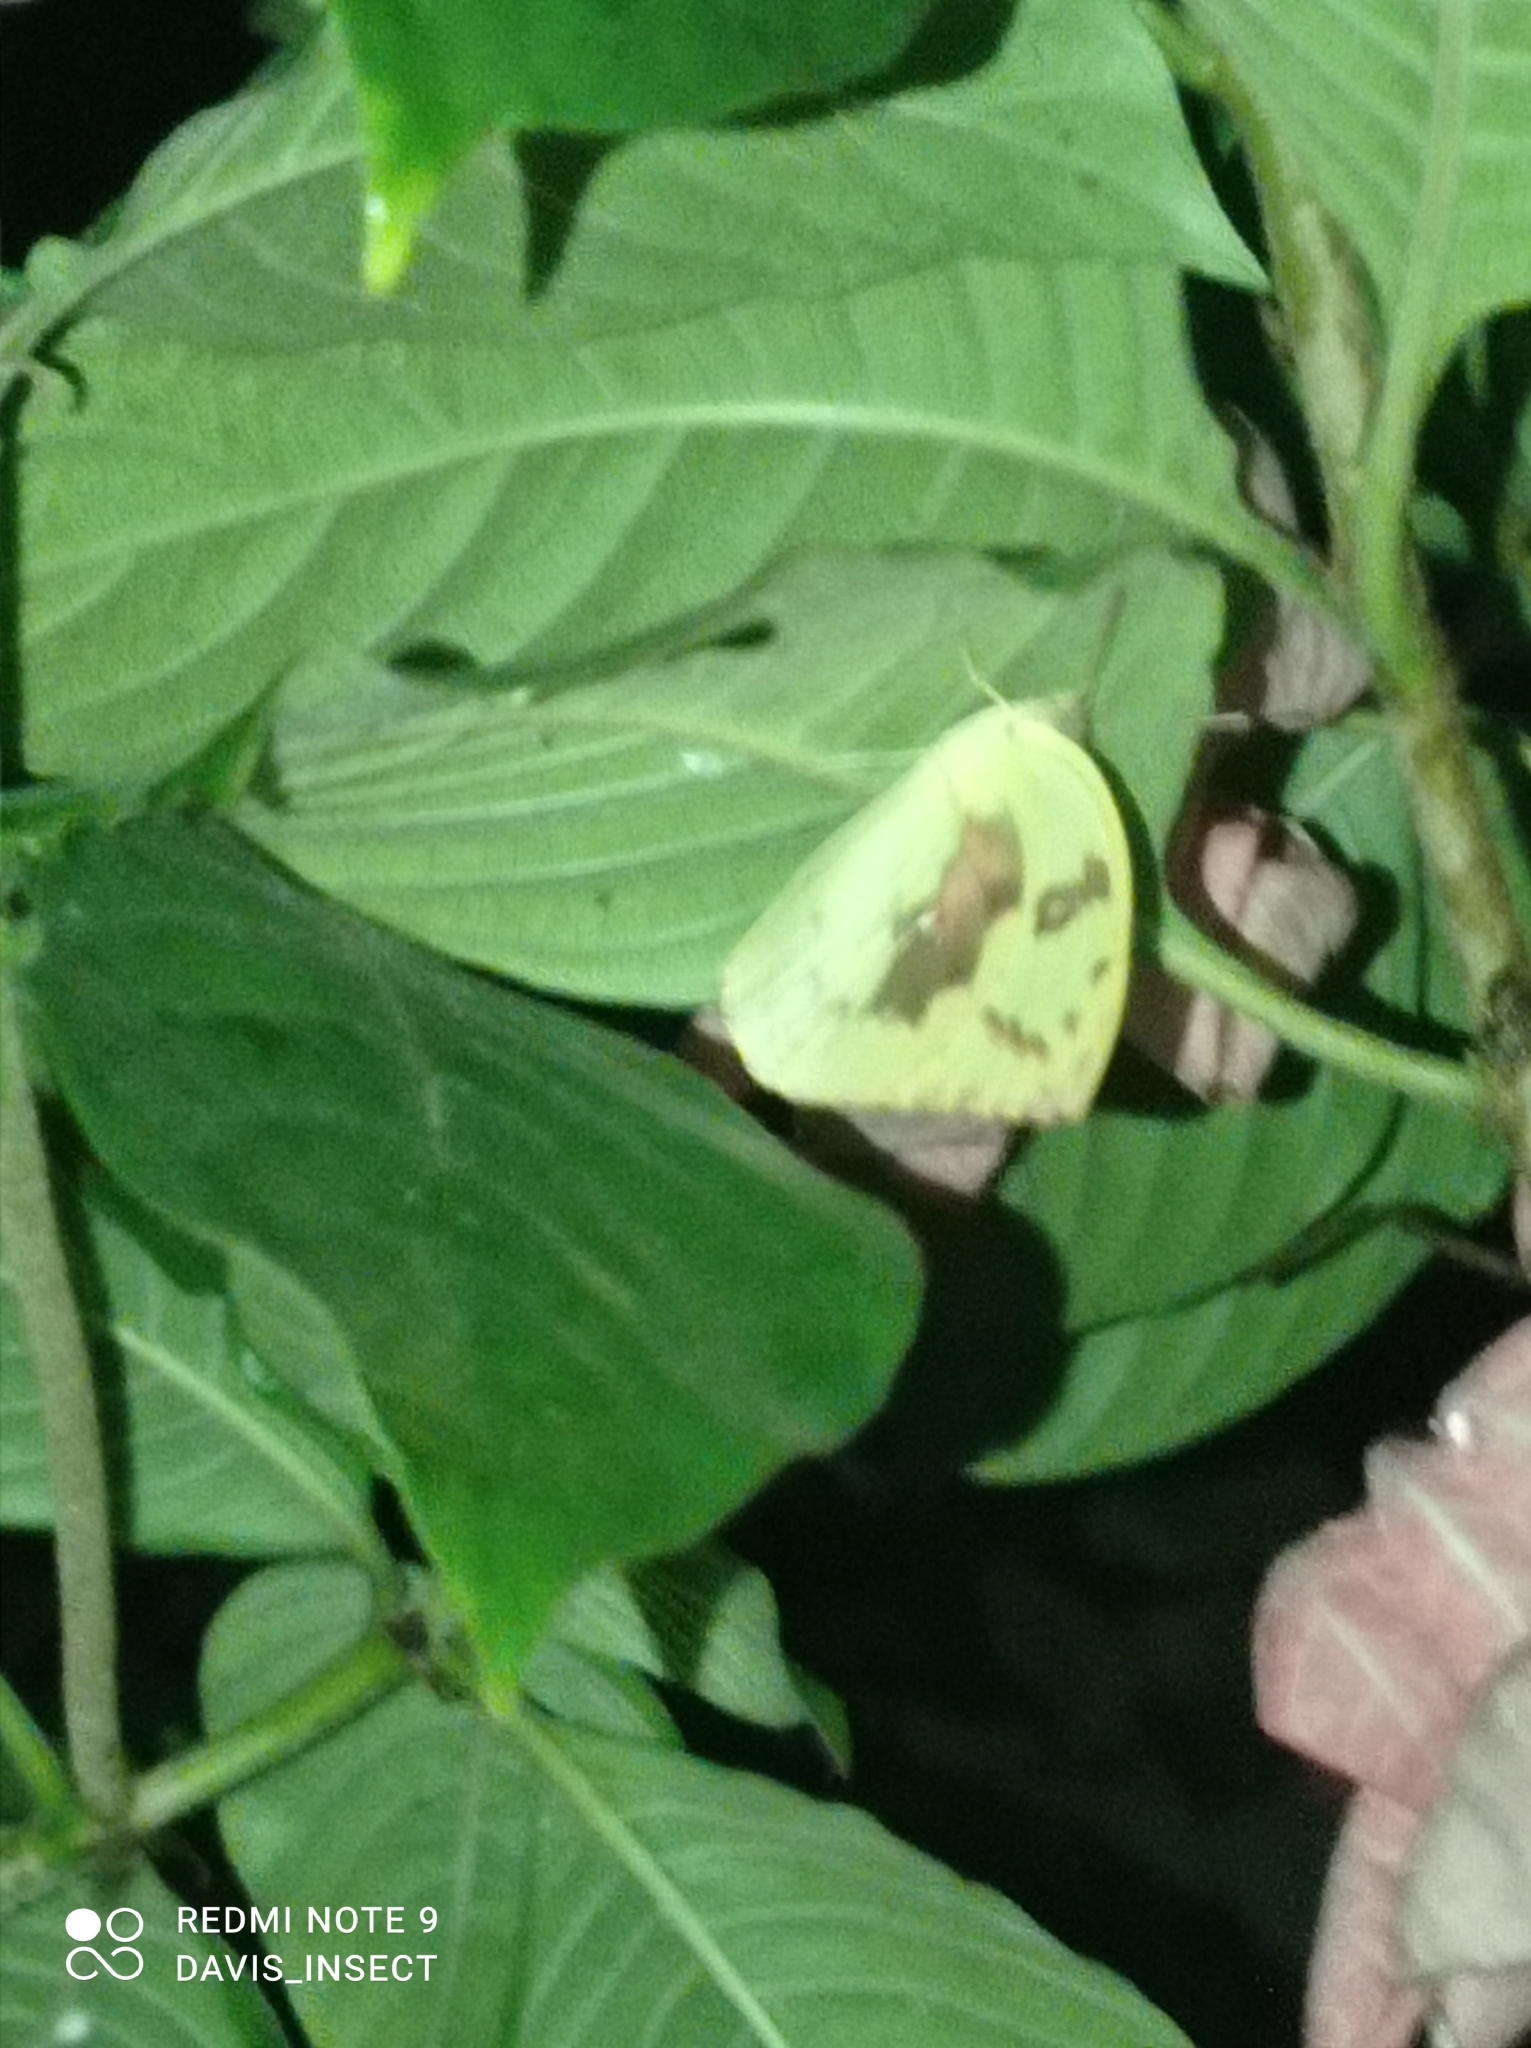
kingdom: Animalia
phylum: Arthropoda
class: Insecta
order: Lepidoptera
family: Pieridae
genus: Catopsilia
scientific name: Catopsilia pomona
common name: Common emigrant
